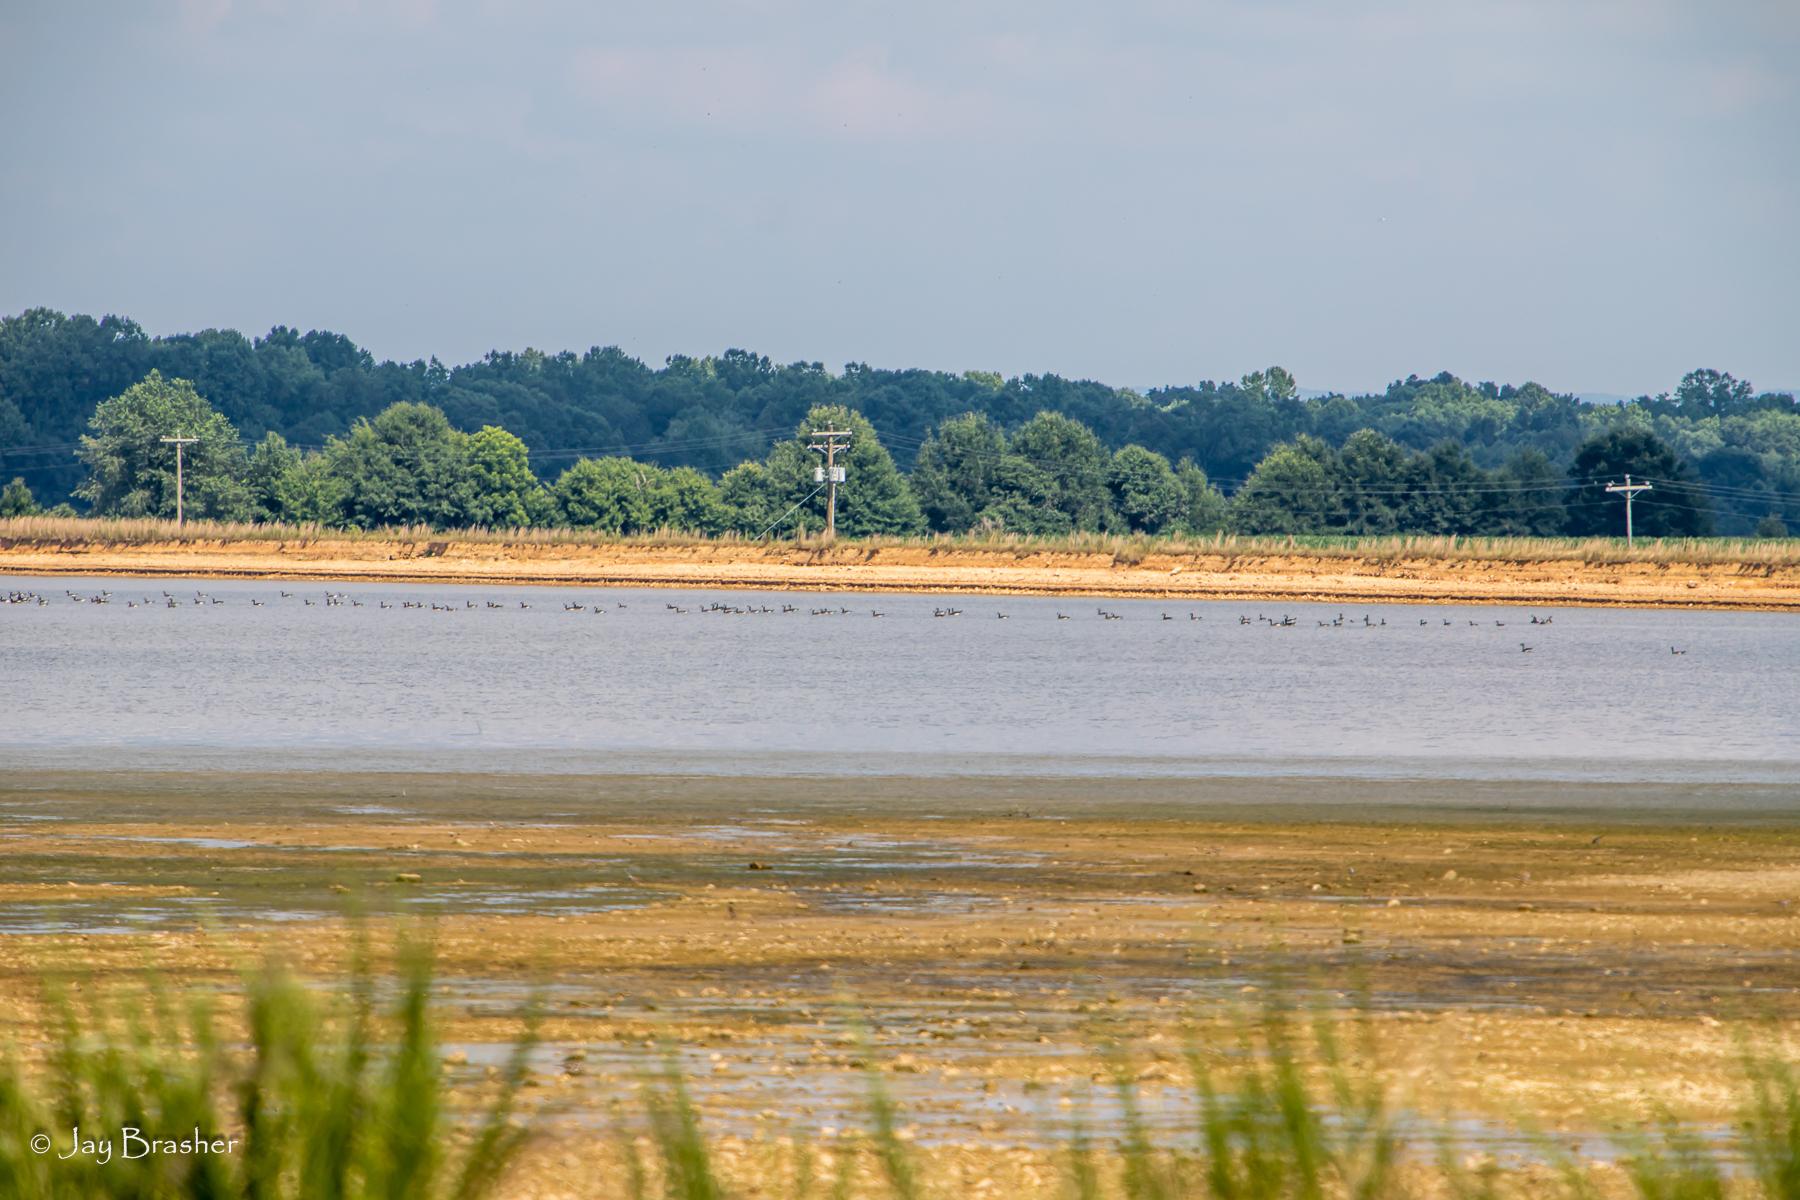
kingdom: Animalia
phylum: Chordata
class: Aves
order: Anseriformes
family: Anatidae
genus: Branta
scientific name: Branta canadensis
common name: Canada goose
